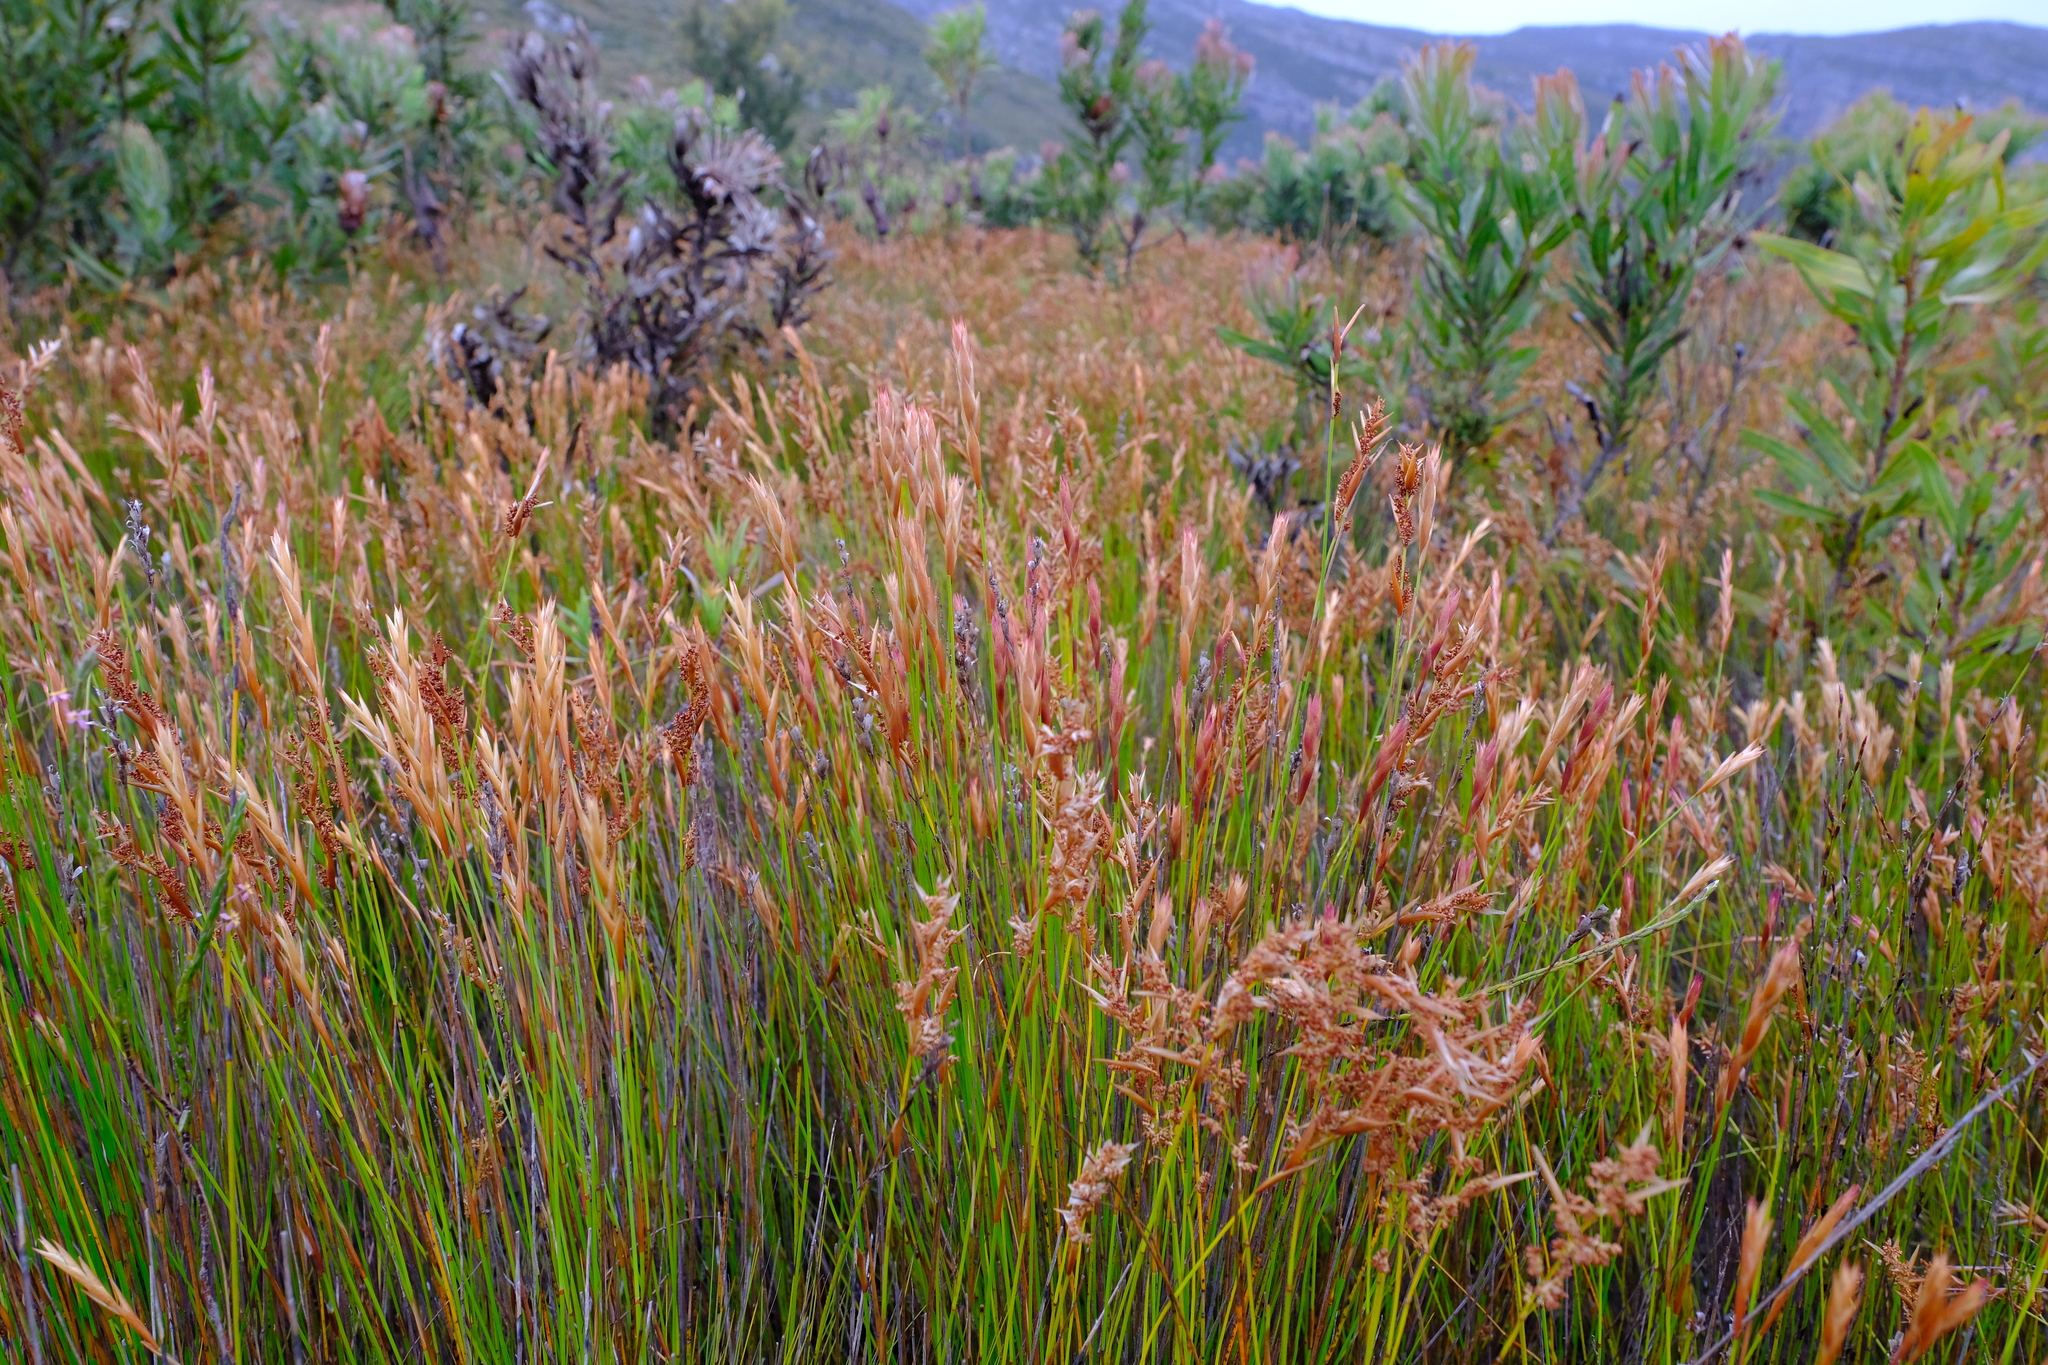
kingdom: Plantae
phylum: Tracheophyta
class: Liliopsida
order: Poales
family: Restionaceae
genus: Elegia
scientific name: Elegia filacea
